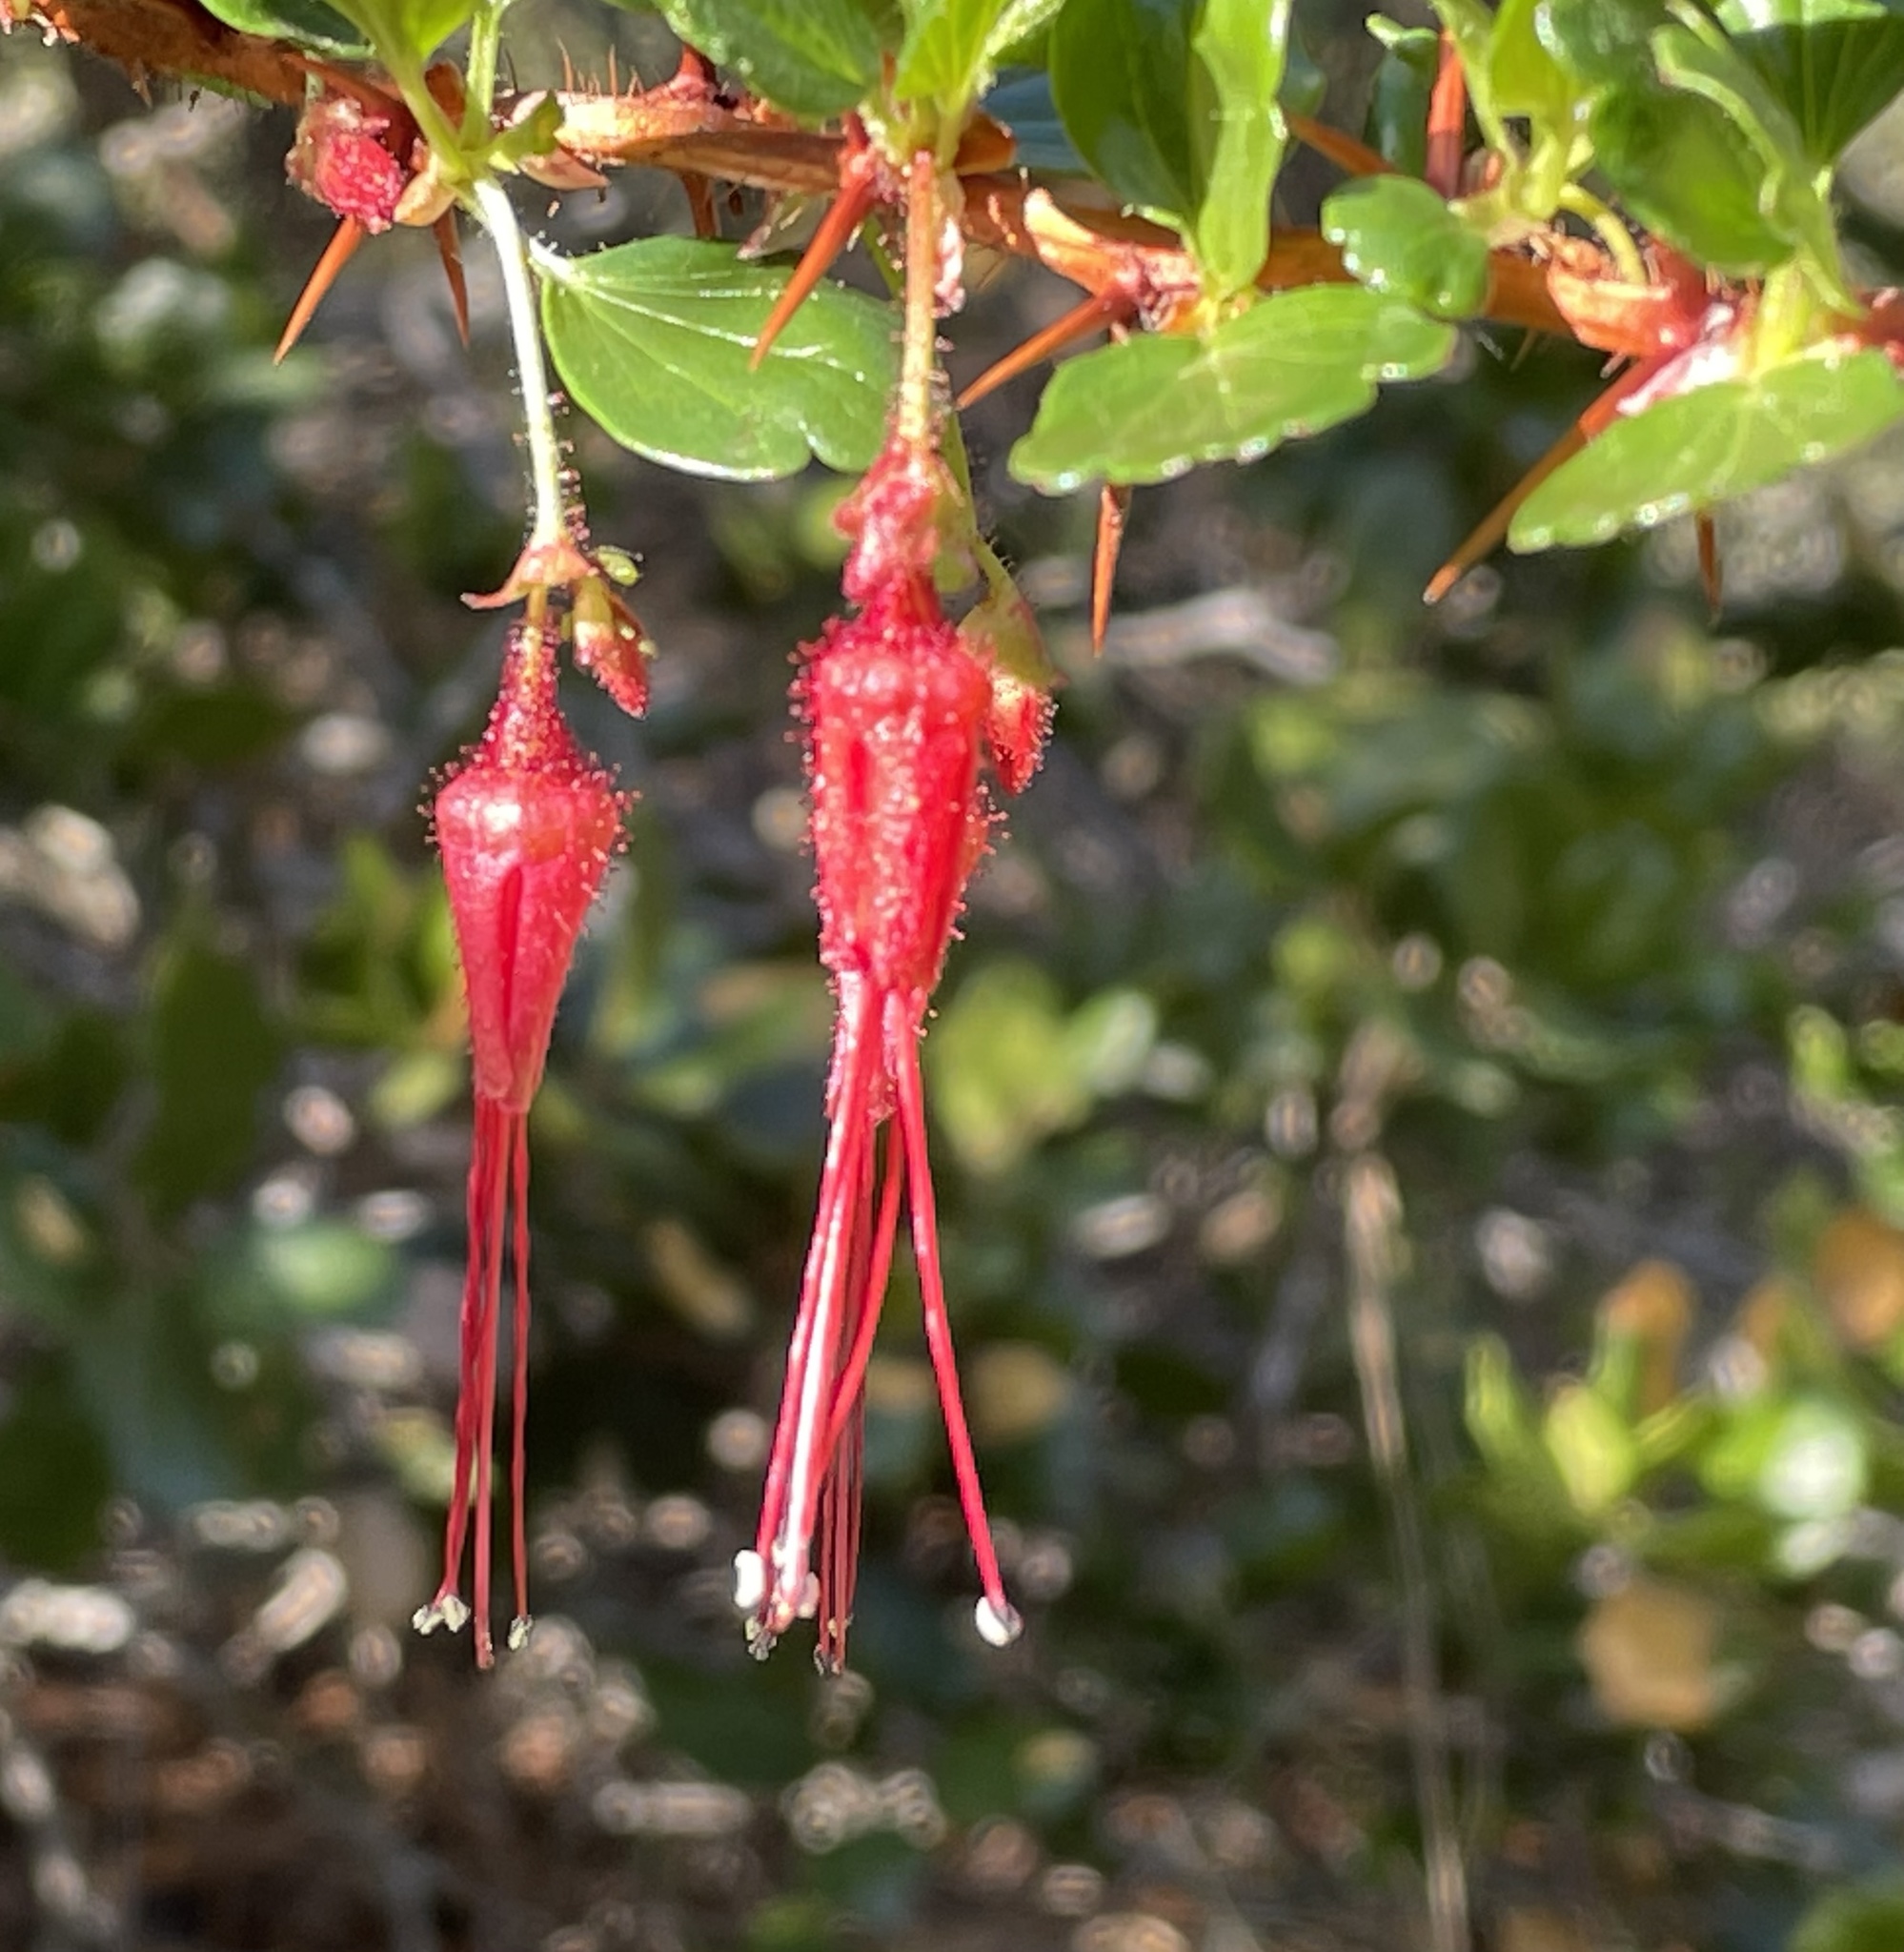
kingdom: Plantae
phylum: Tracheophyta
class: Magnoliopsida
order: Saxifragales
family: Grossulariaceae
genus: Ribes
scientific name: Ribes speciosum
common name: Fuchsia-flower gooseberry
